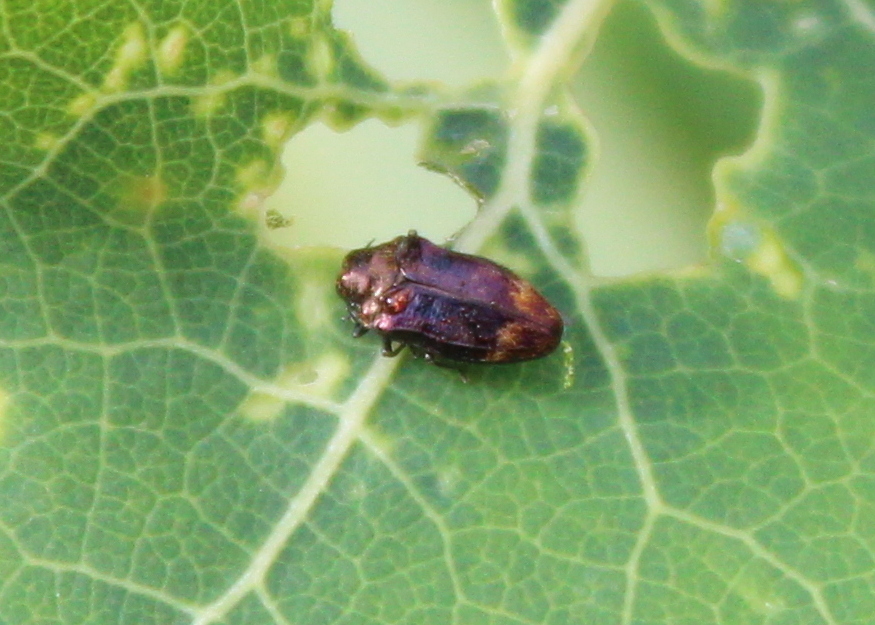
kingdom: Animalia
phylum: Arthropoda
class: Insecta
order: Coleoptera
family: Buprestidae
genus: Brachys
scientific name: Brachys aerosus
